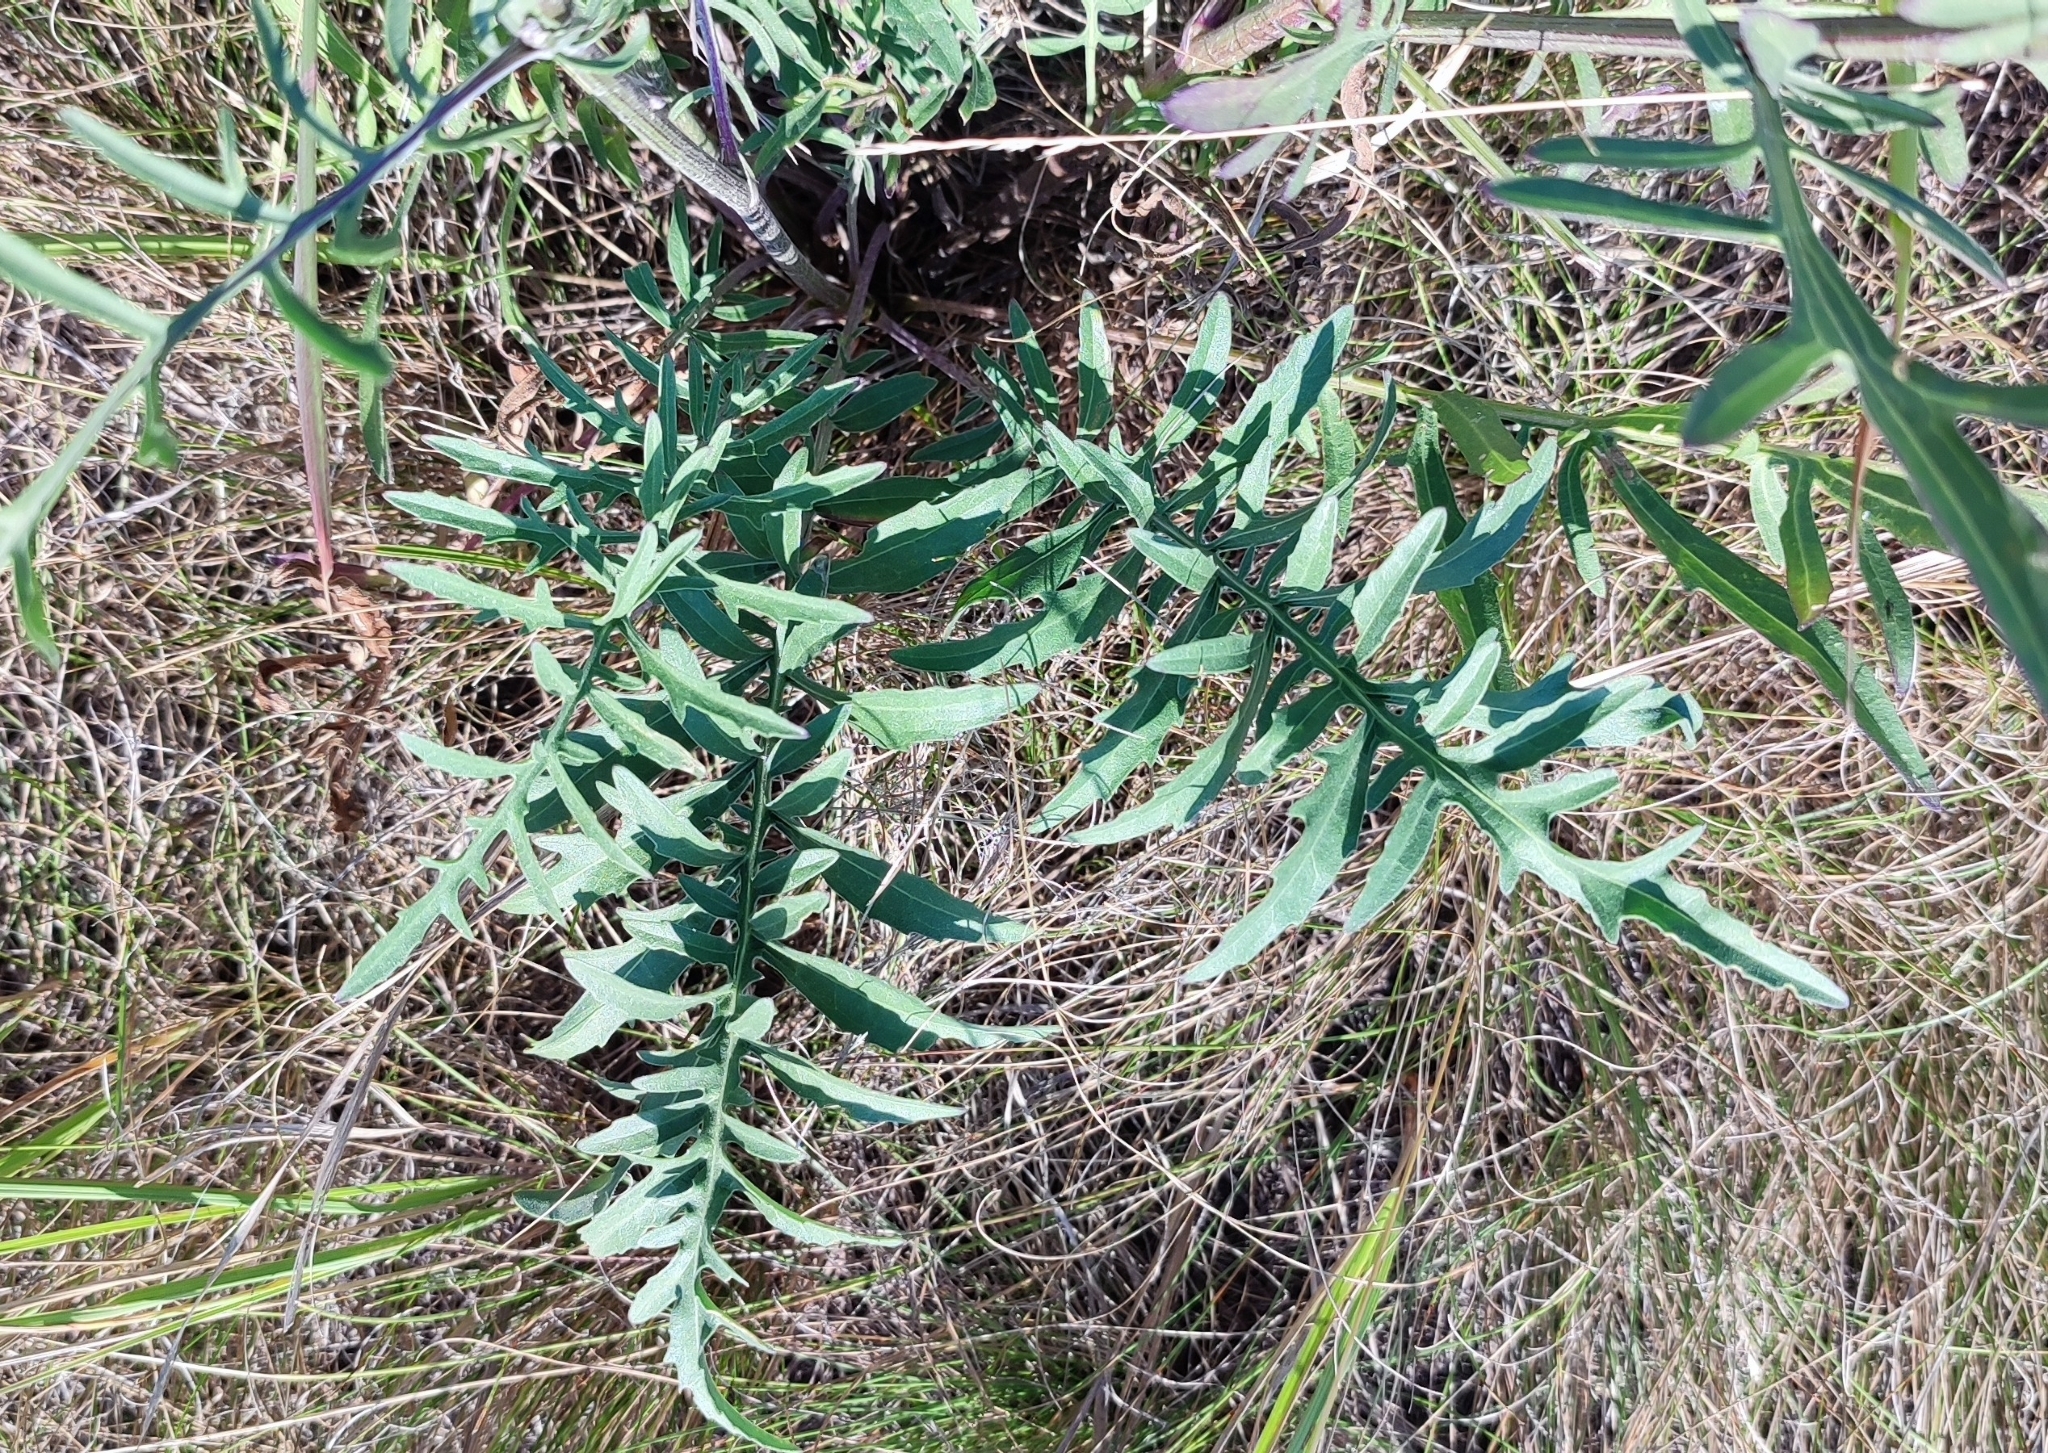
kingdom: Plantae
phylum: Tracheophyta
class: Magnoliopsida
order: Asterales
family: Asteraceae
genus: Centaurea
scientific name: Centaurea scabiosa
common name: Greater knapweed
